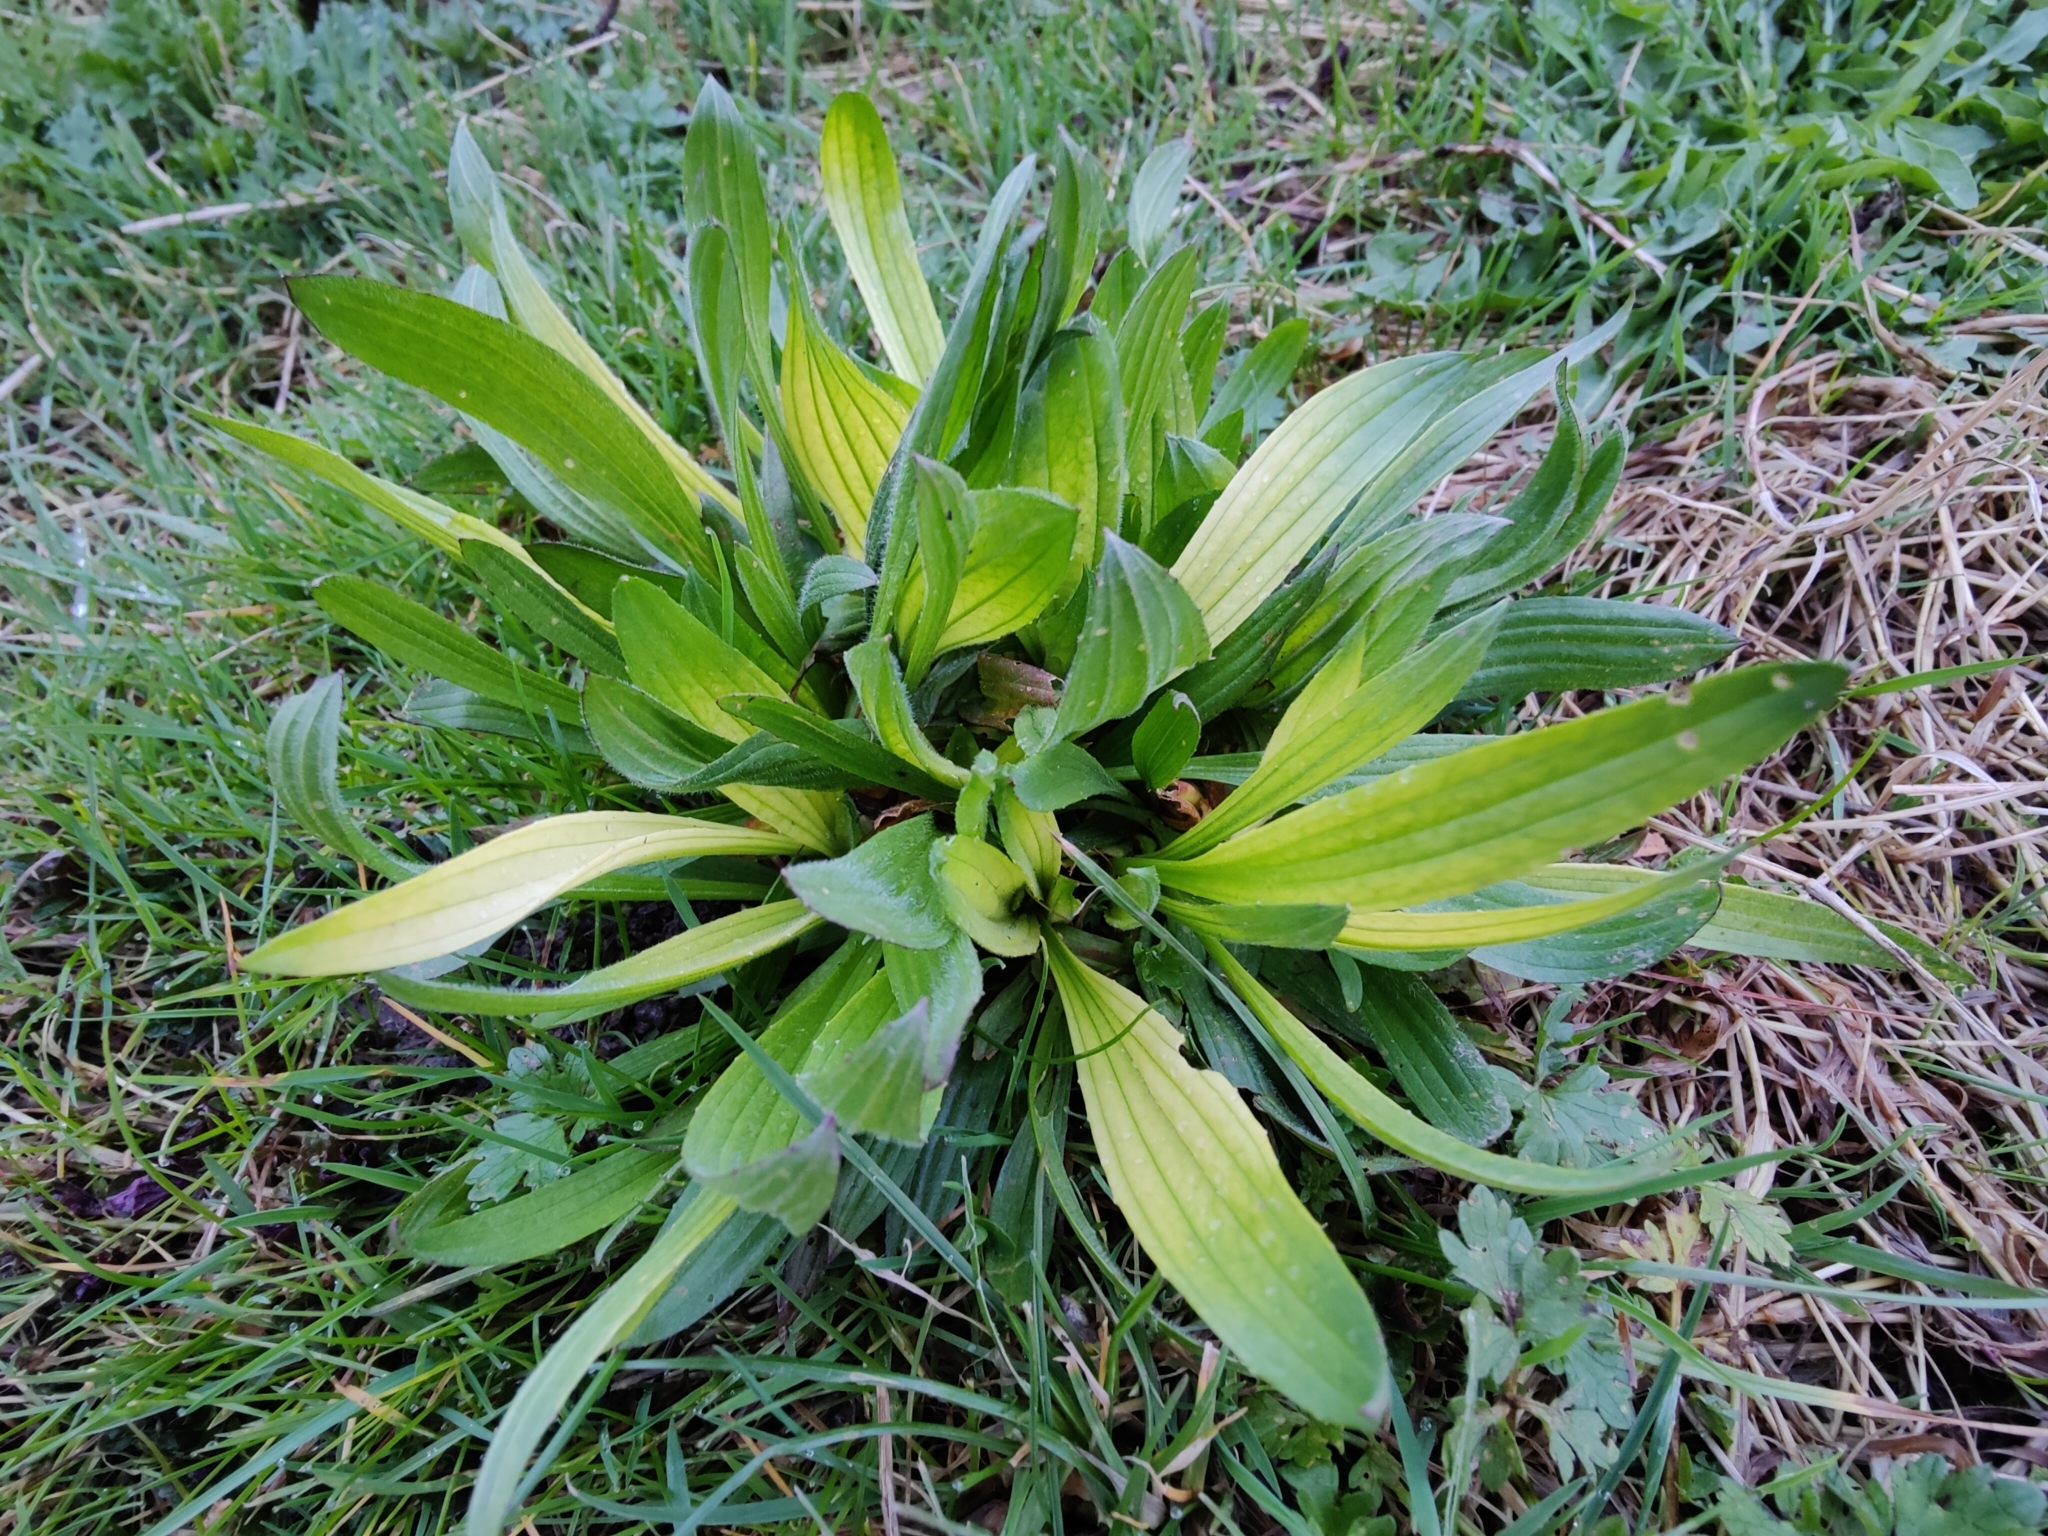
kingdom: Plantae
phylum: Tracheophyta
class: Magnoliopsida
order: Lamiales
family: Plantaginaceae
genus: Plantago
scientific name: Plantago lanceolata
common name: Ribwort plantain
